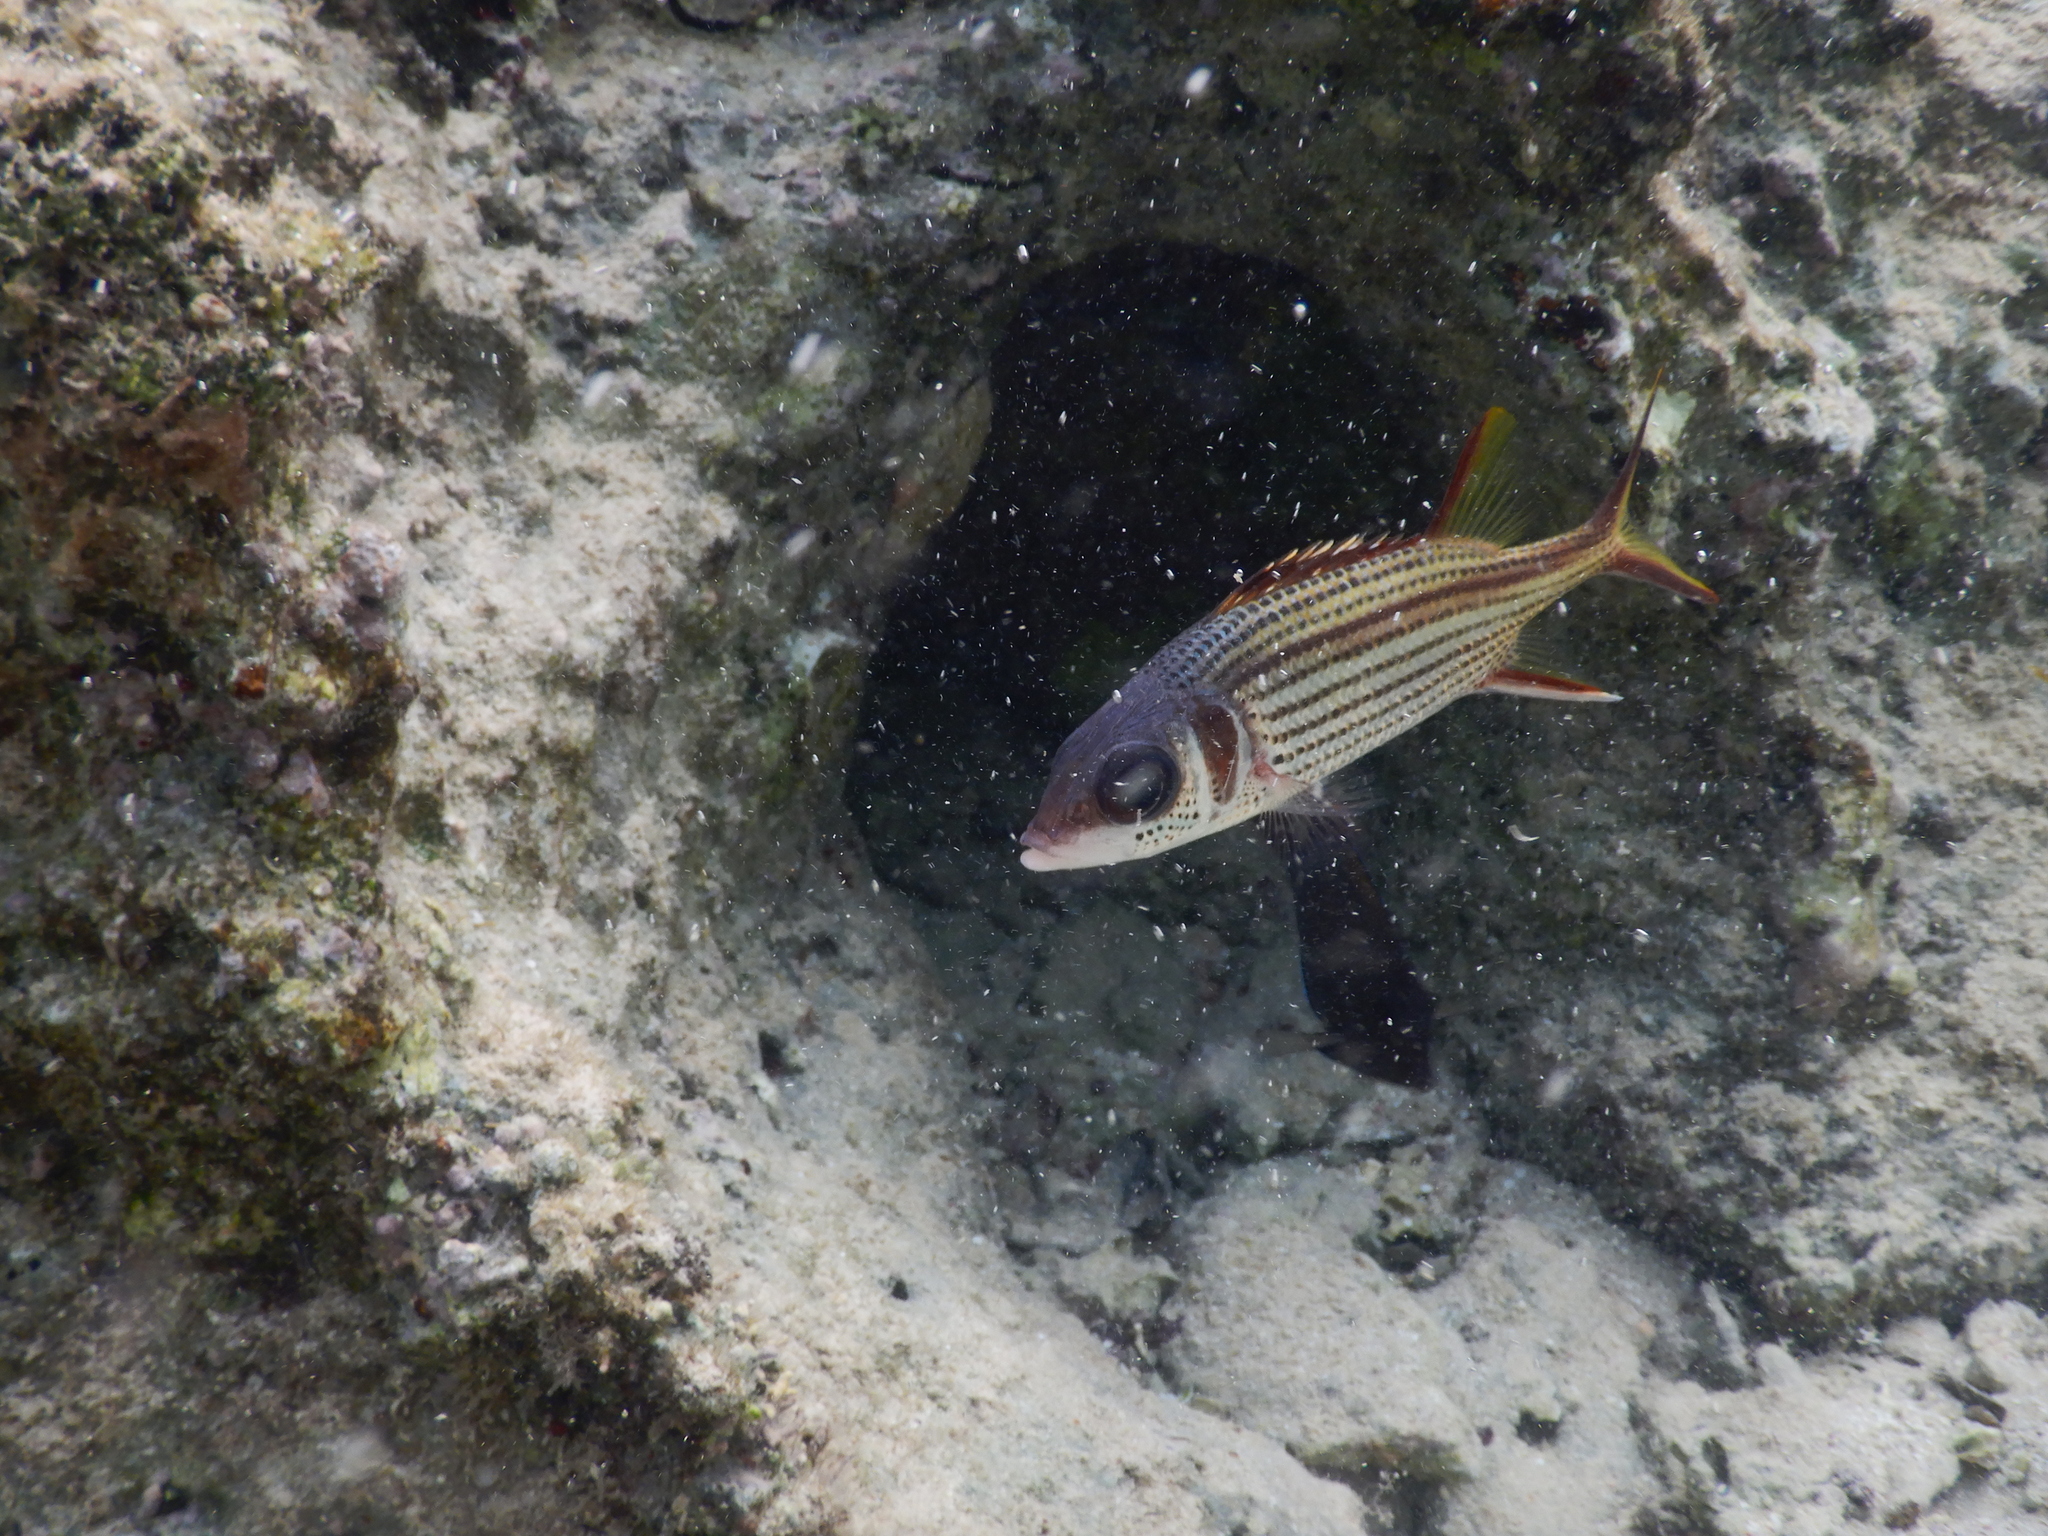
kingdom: Animalia
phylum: Chordata
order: Beryciformes
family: Holocentridae
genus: Neoniphon
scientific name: Neoniphon sammara
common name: Sammara squirrelfish
